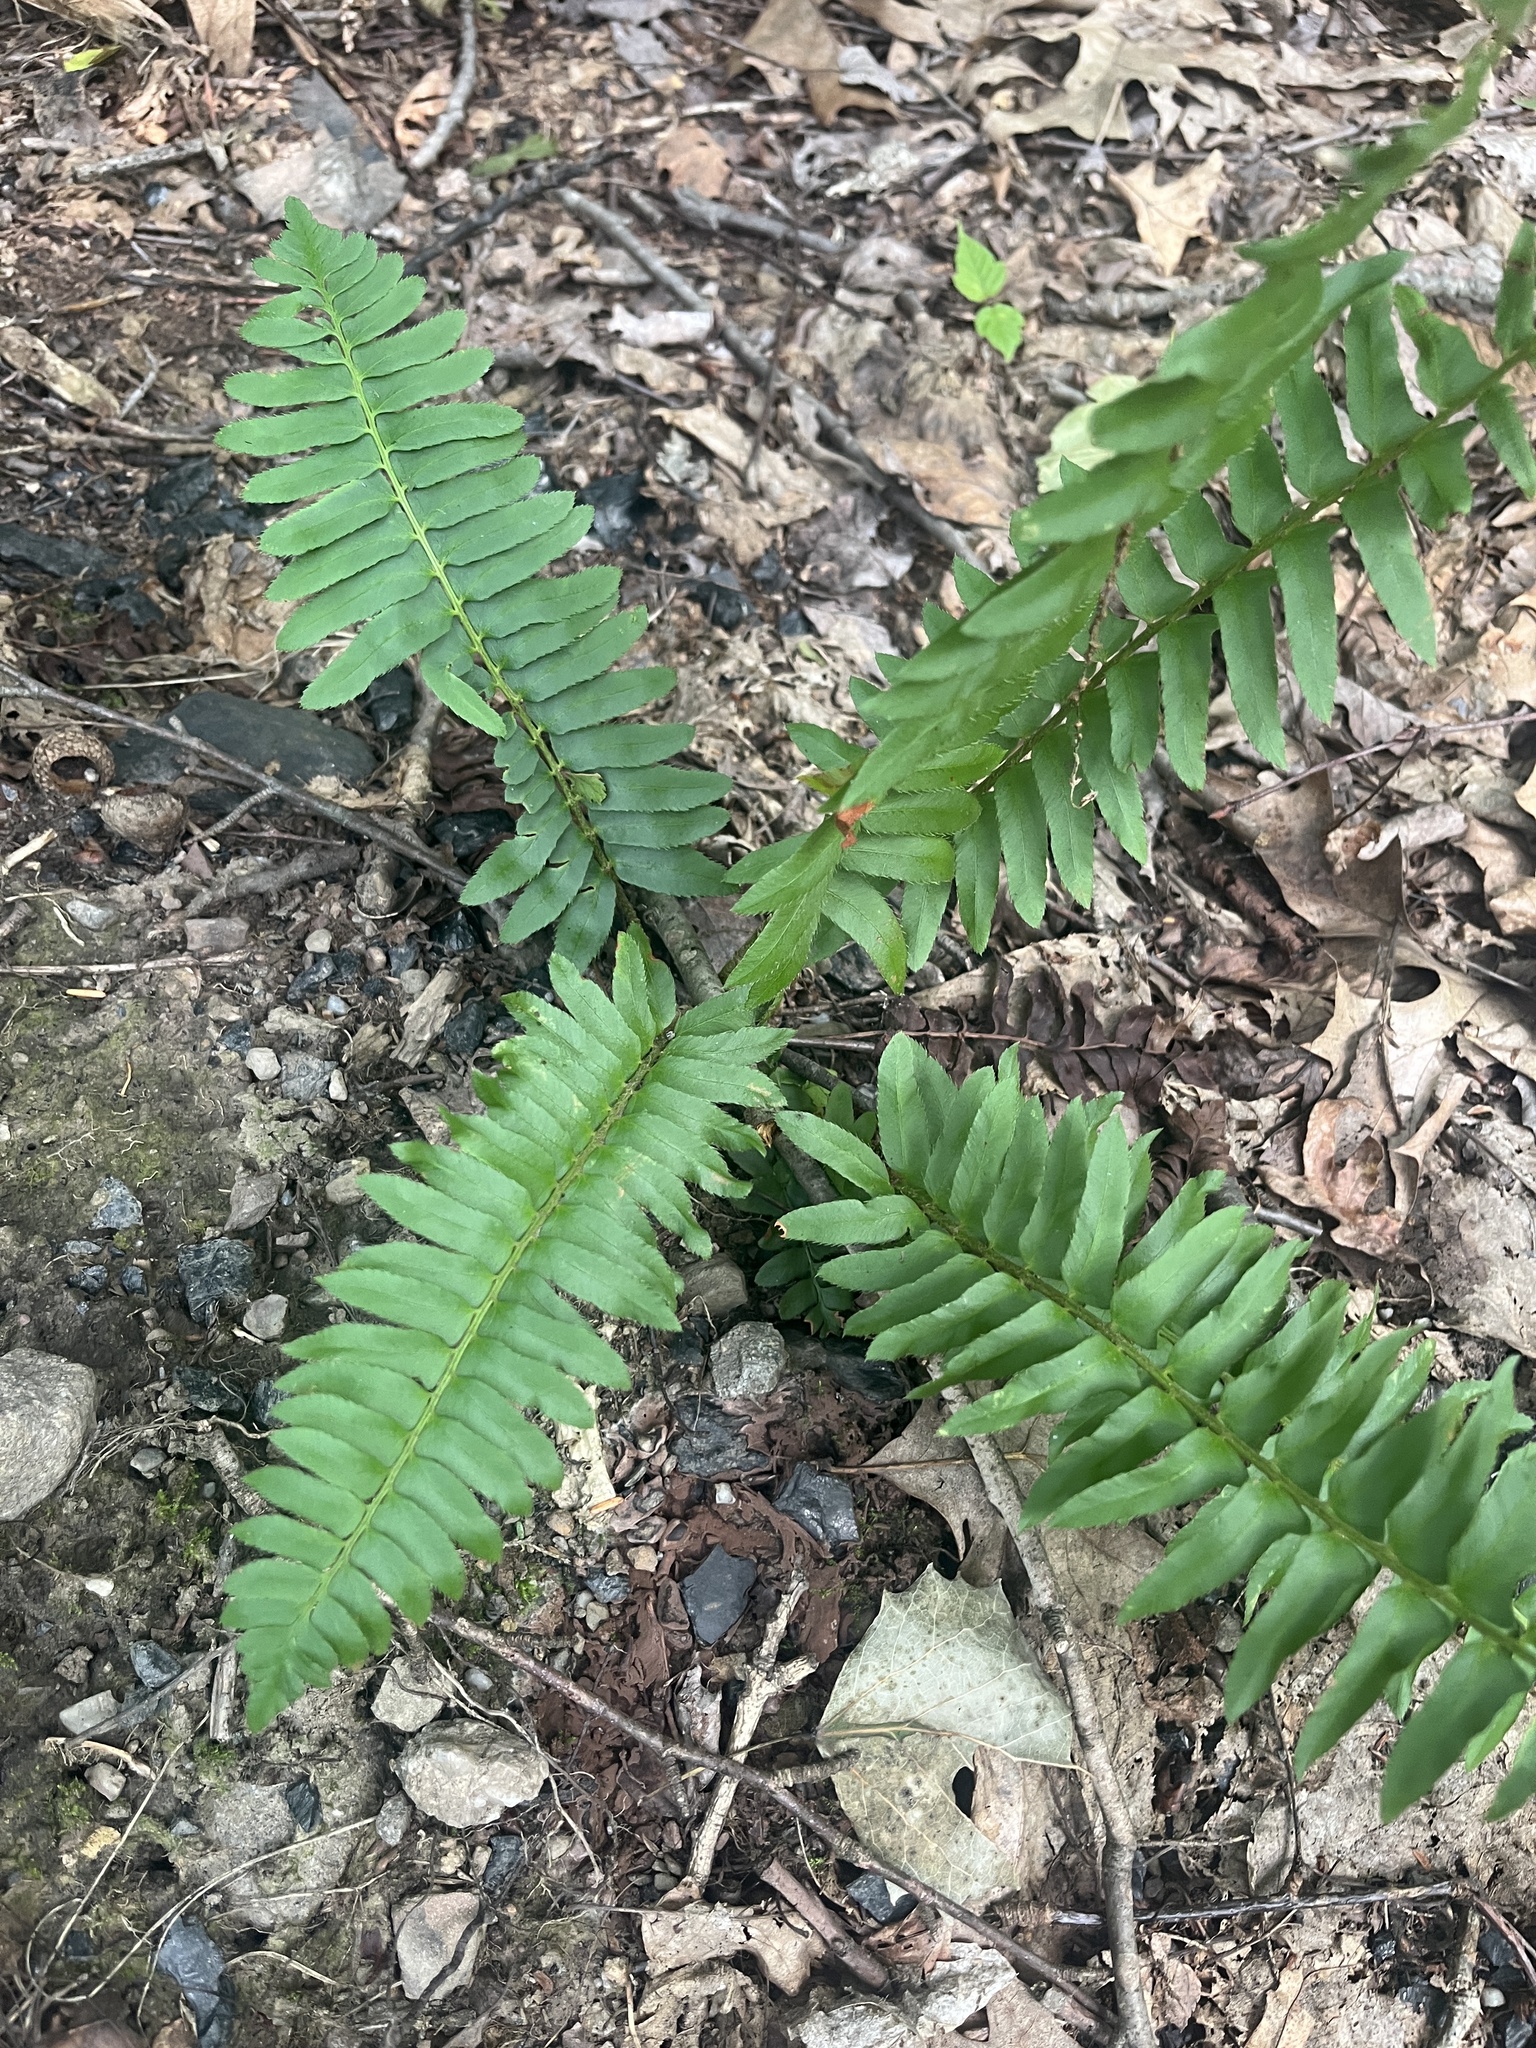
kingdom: Plantae
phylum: Tracheophyta
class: Polypodiopsida
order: Polypodiales
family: Dryopteridaceae
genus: Polystichum
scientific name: Polystichum acrostichoides
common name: Christmas fern
